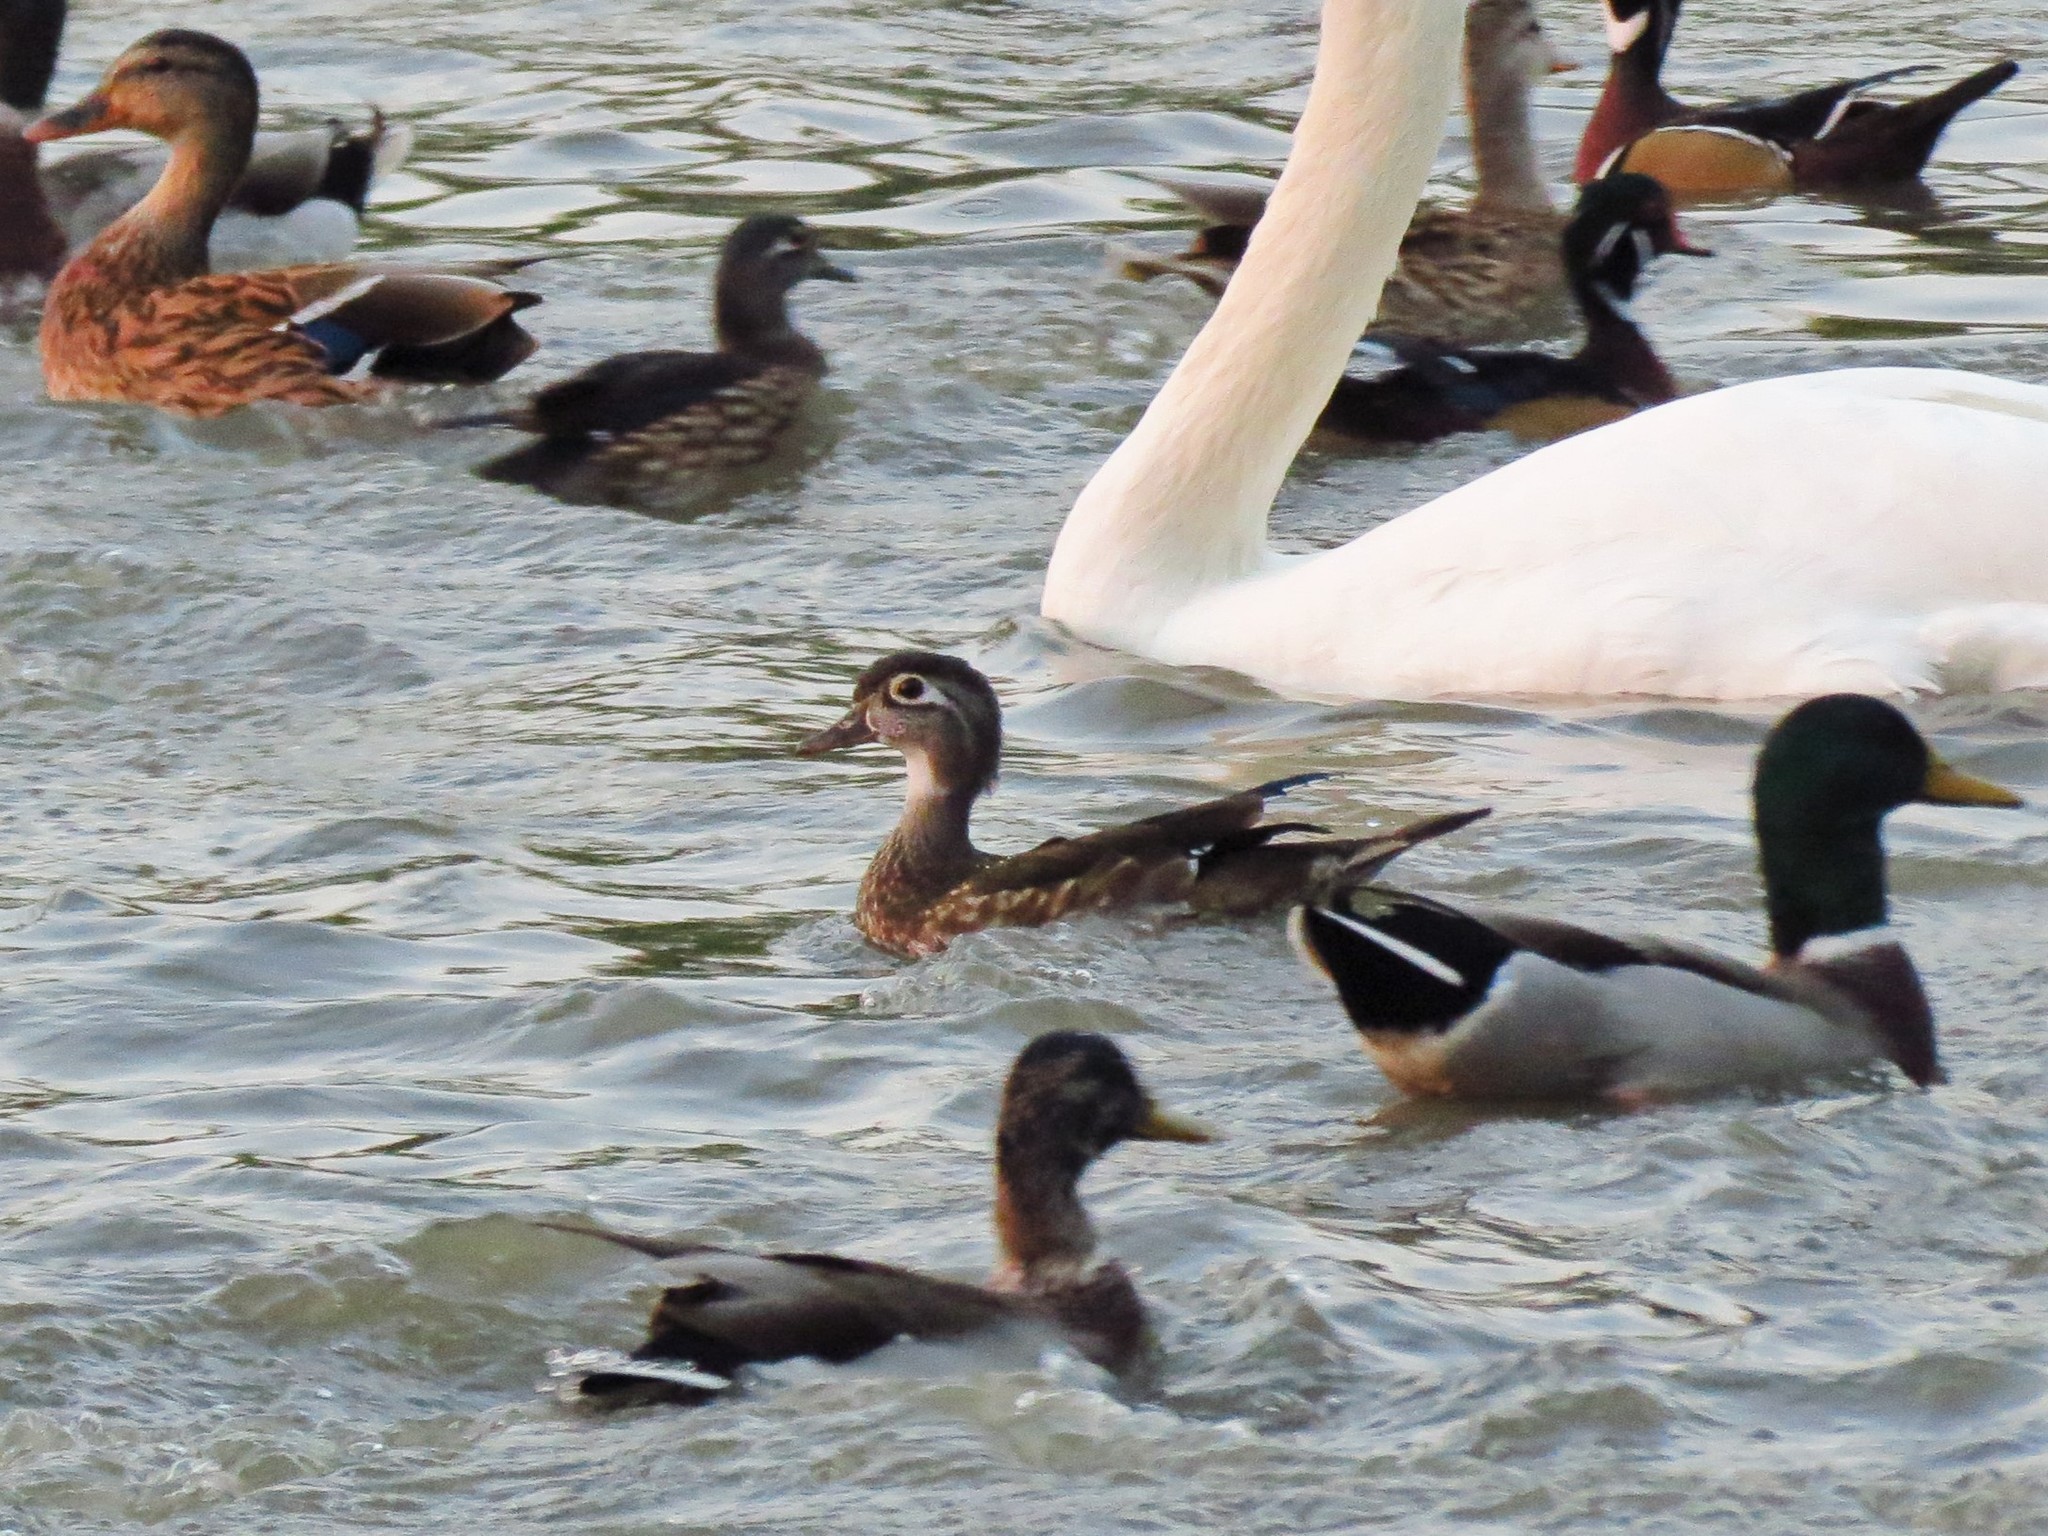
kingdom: Animalia
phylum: Chordata
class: Aves
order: Anseriformes
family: Anatidae
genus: Aix
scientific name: Aix sponsa
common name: Wood duck
